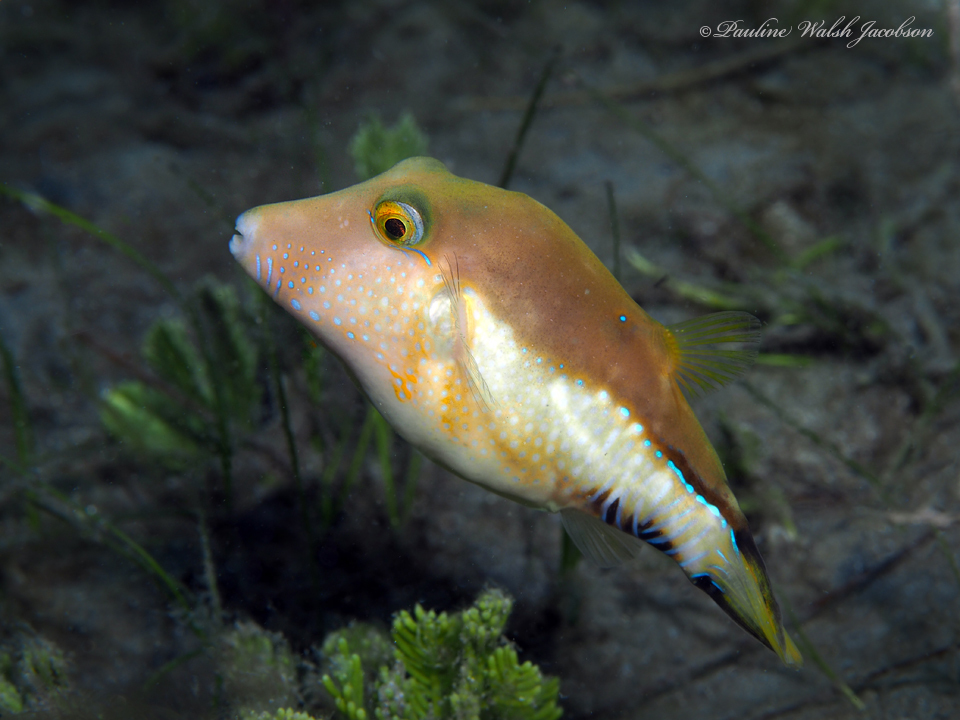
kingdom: Animalia
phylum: Chordata
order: Tetraodontiformes
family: Tetraodontidae
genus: Canthigaster
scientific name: Canthigaster rostrata
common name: Caribbean sharpnose-puffer
